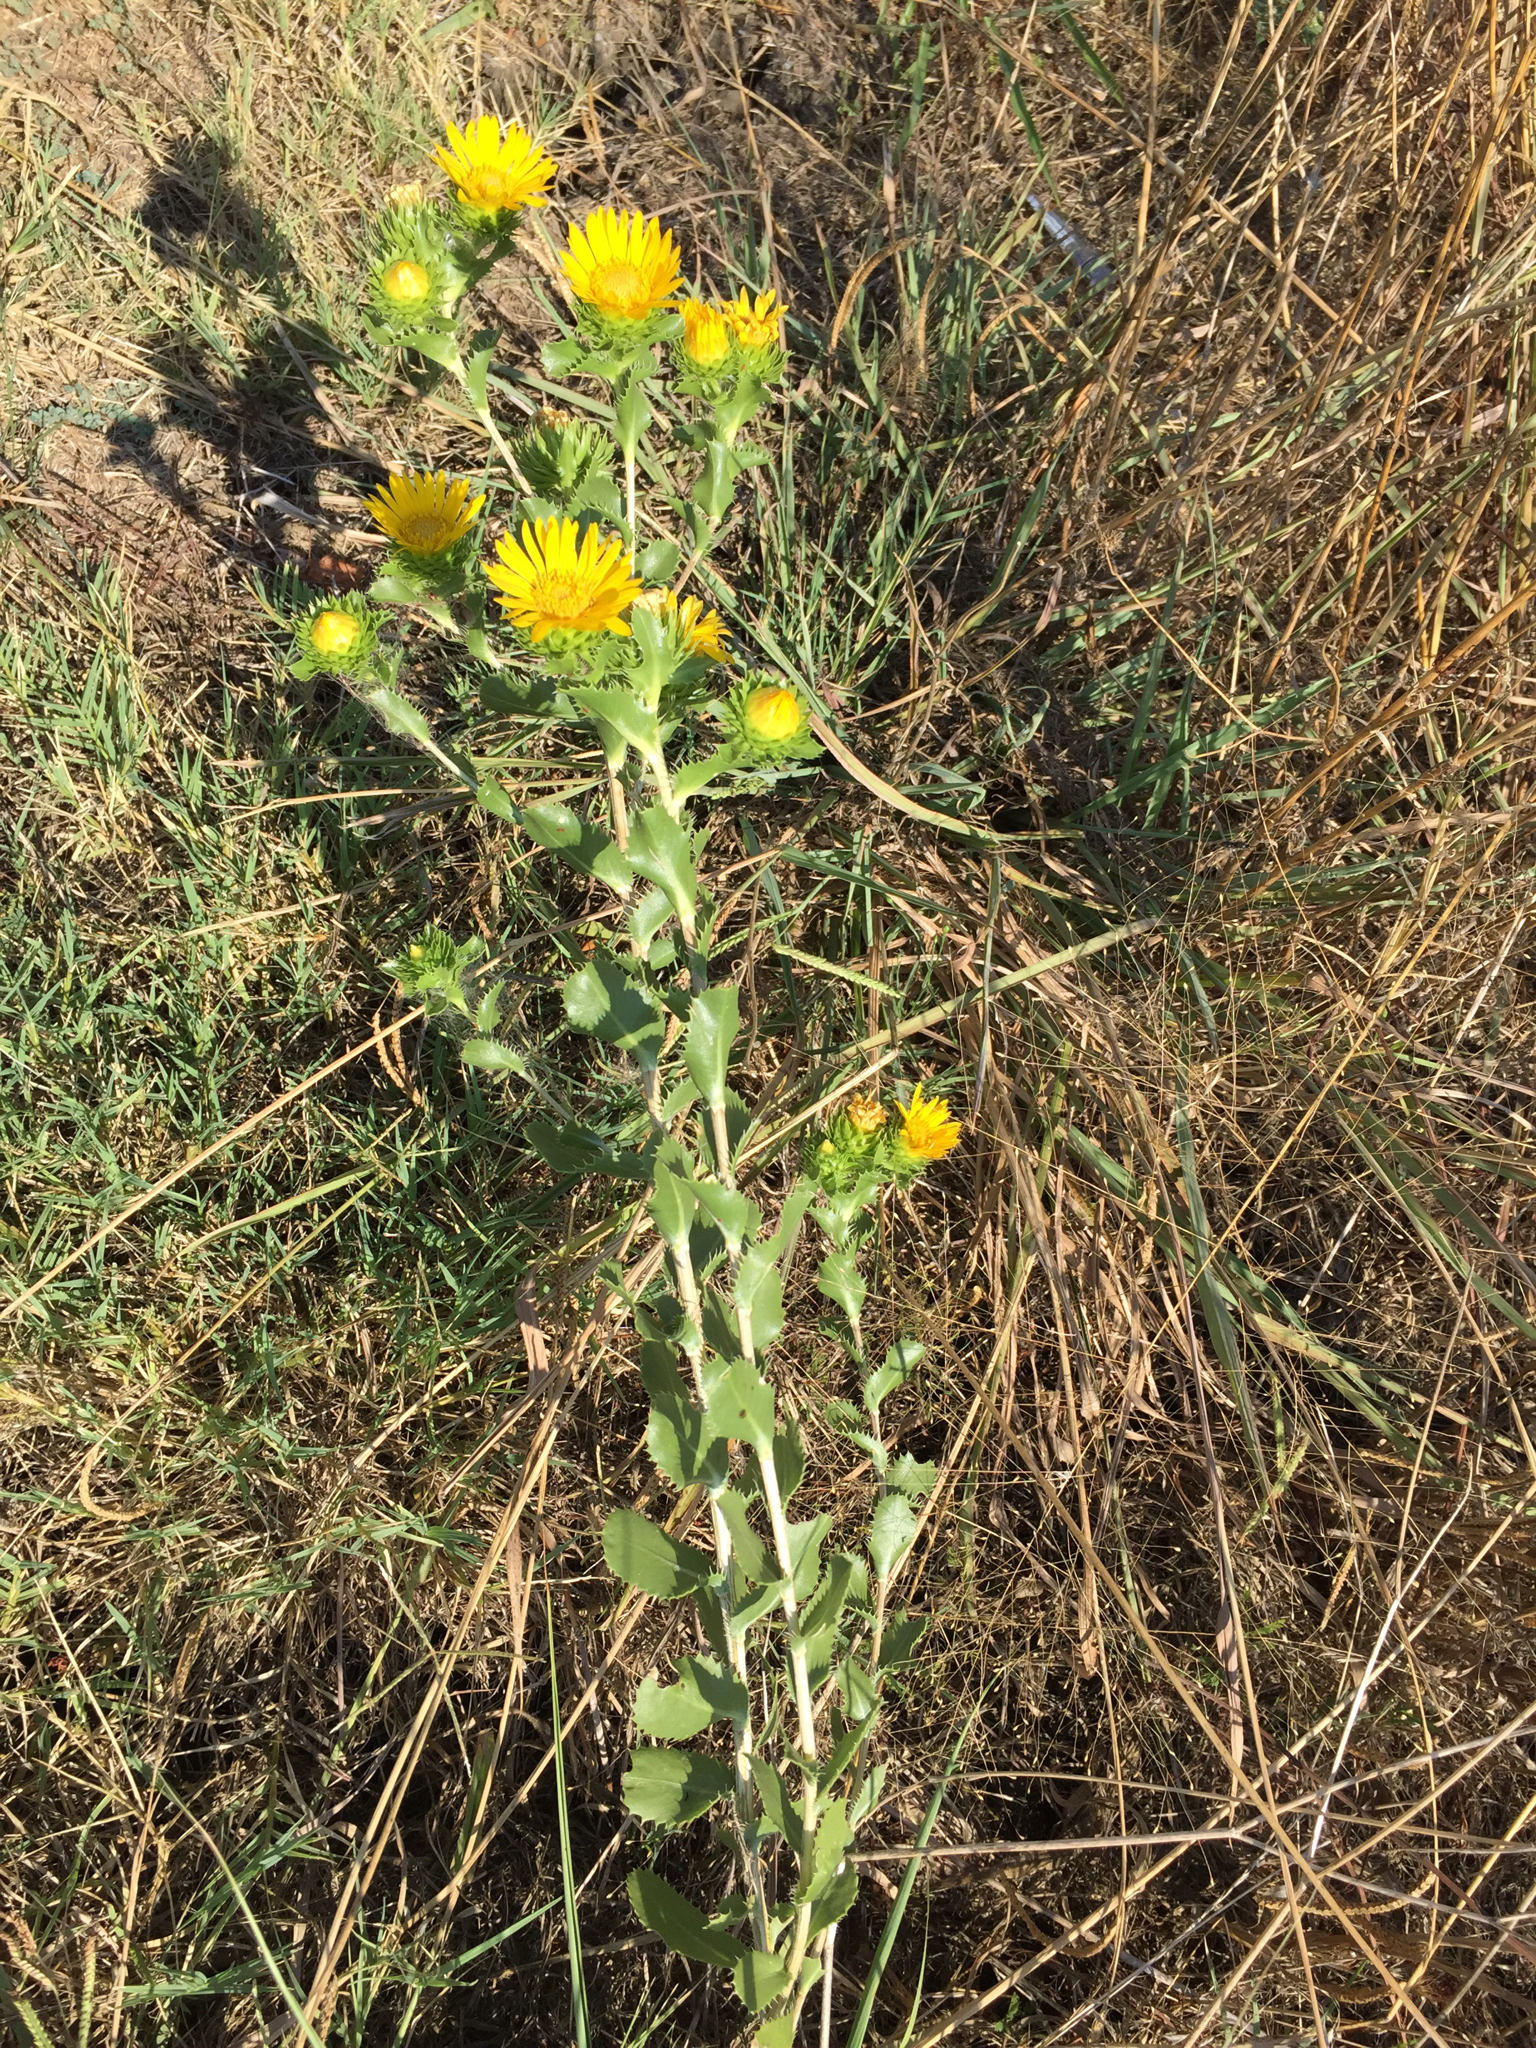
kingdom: Plantae
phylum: Tracheophyta
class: Magnoliopsida
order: Asterales
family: Asteraceae
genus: Grindelia
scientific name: Grindelia ciliata
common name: Goldenweed
